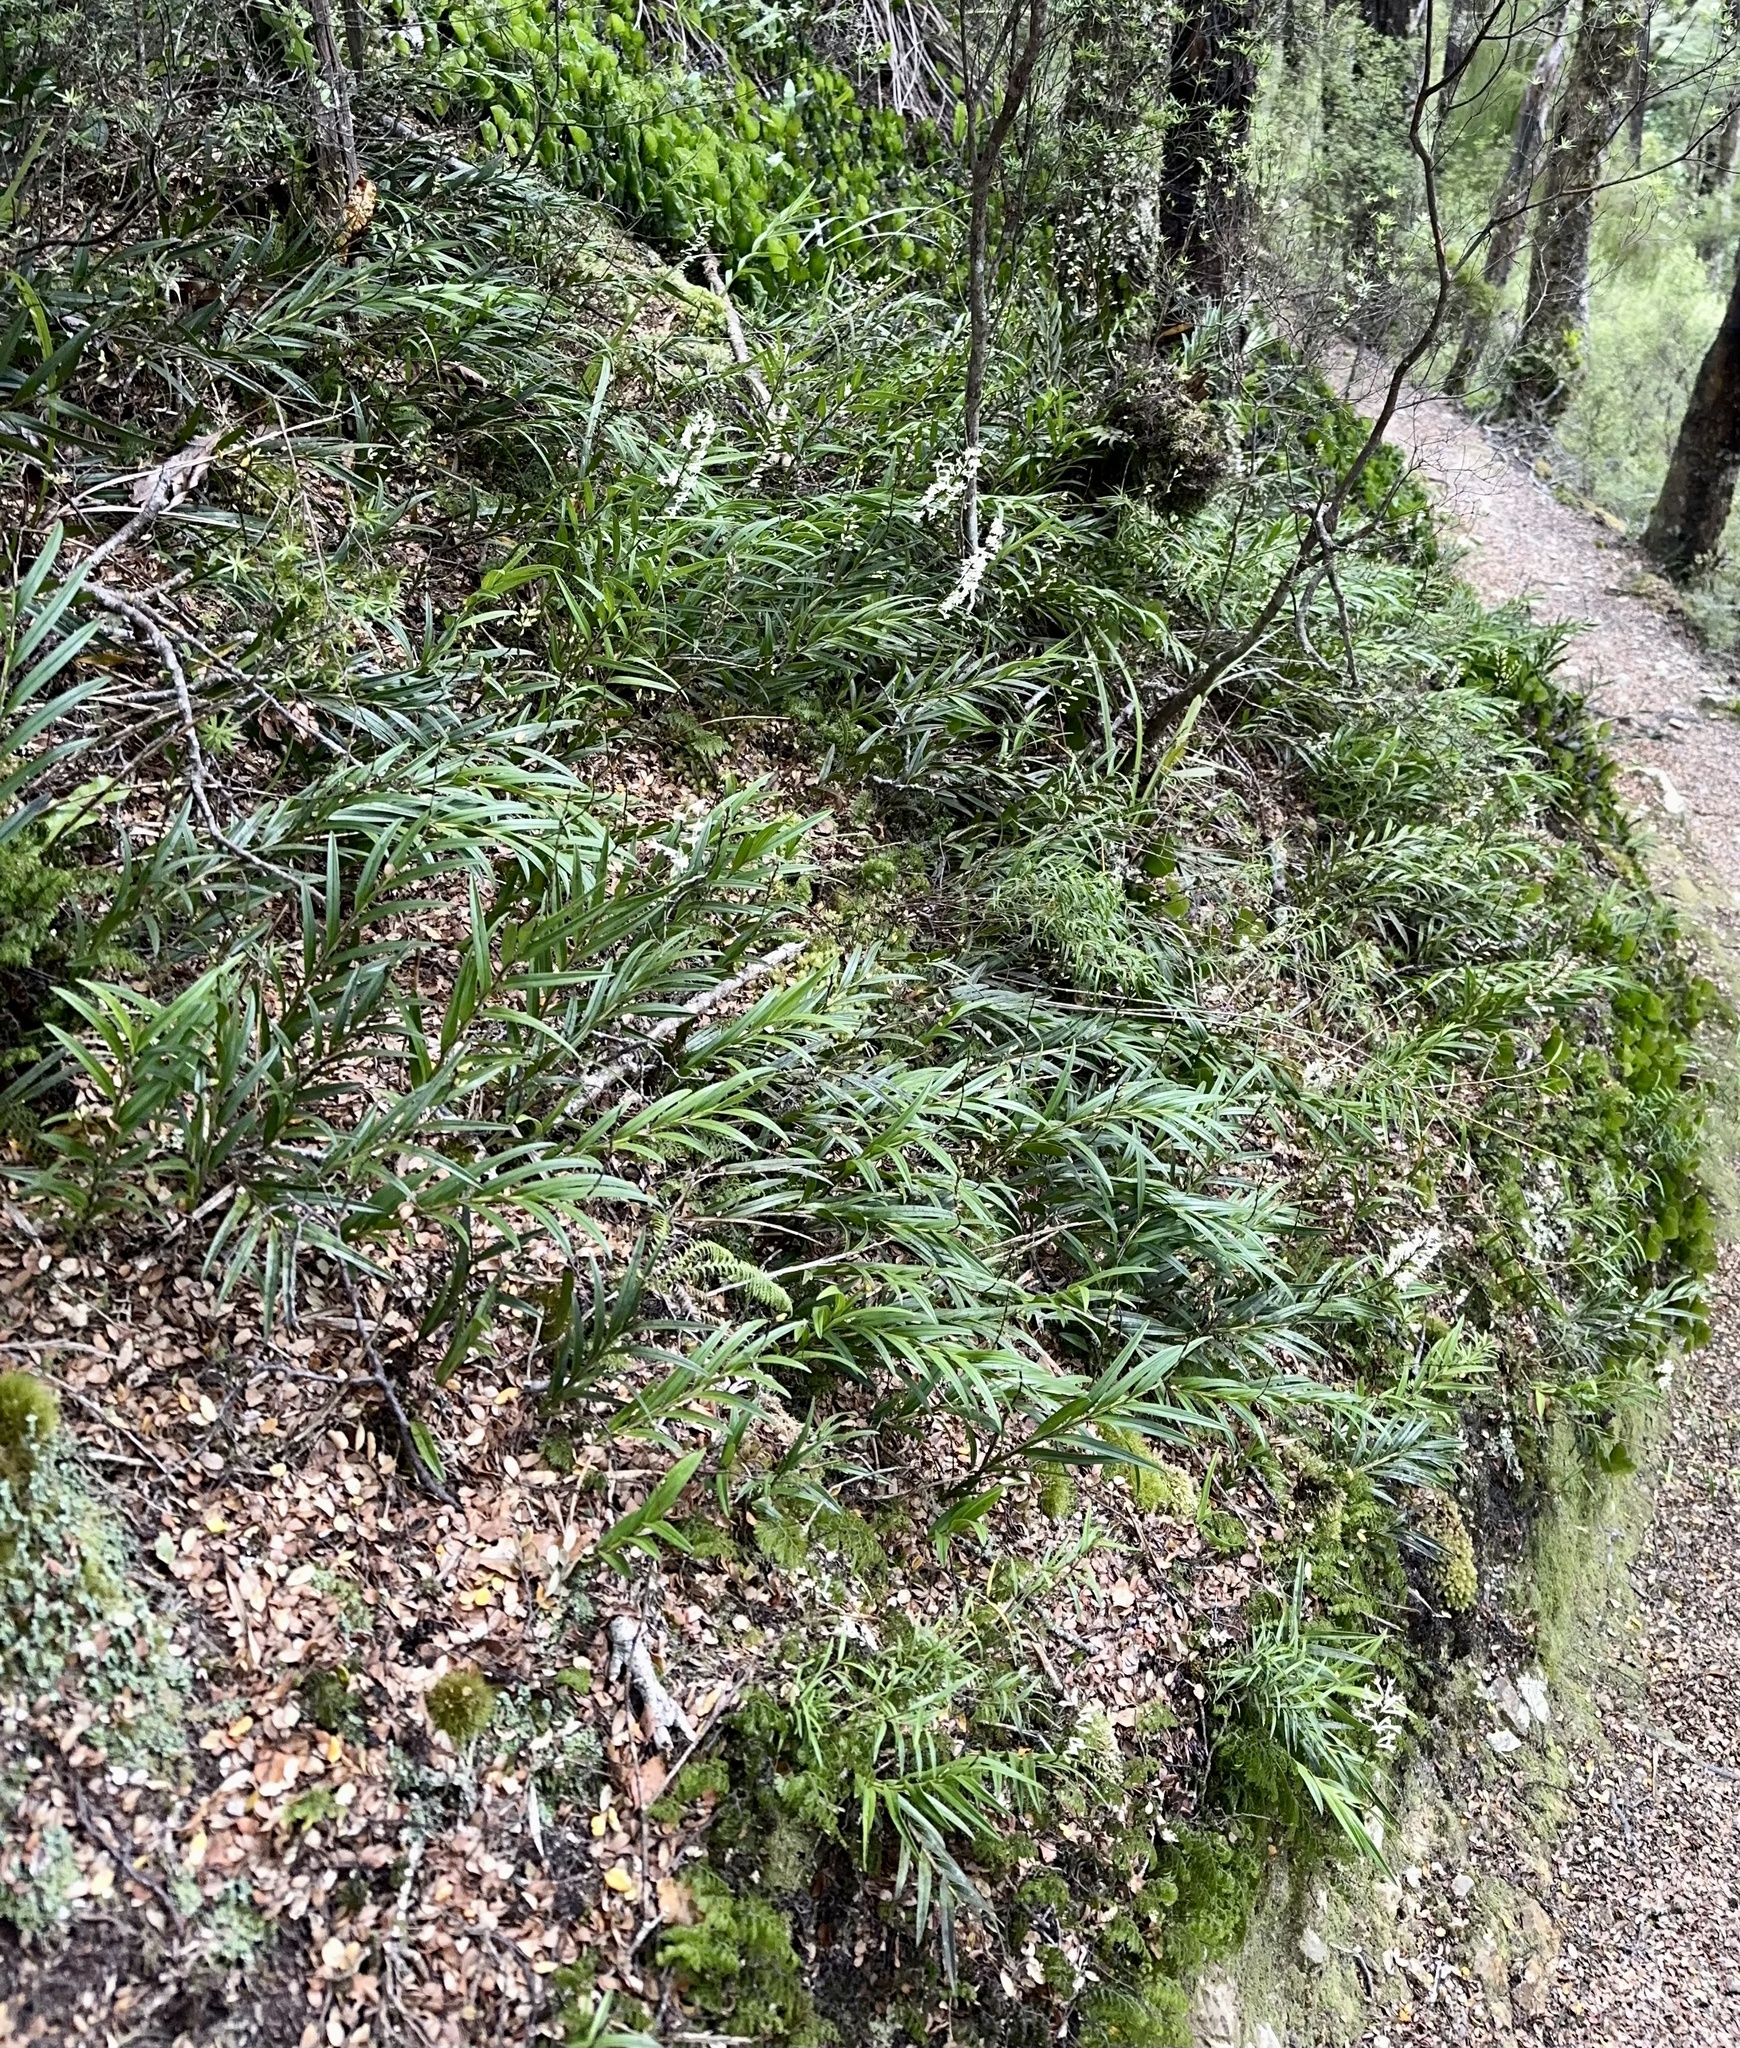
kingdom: Plantae
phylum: Tracheophyta
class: Liliopsida
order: Asparagales
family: Orchidaceae
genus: Earina
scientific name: Earina autumnalis
